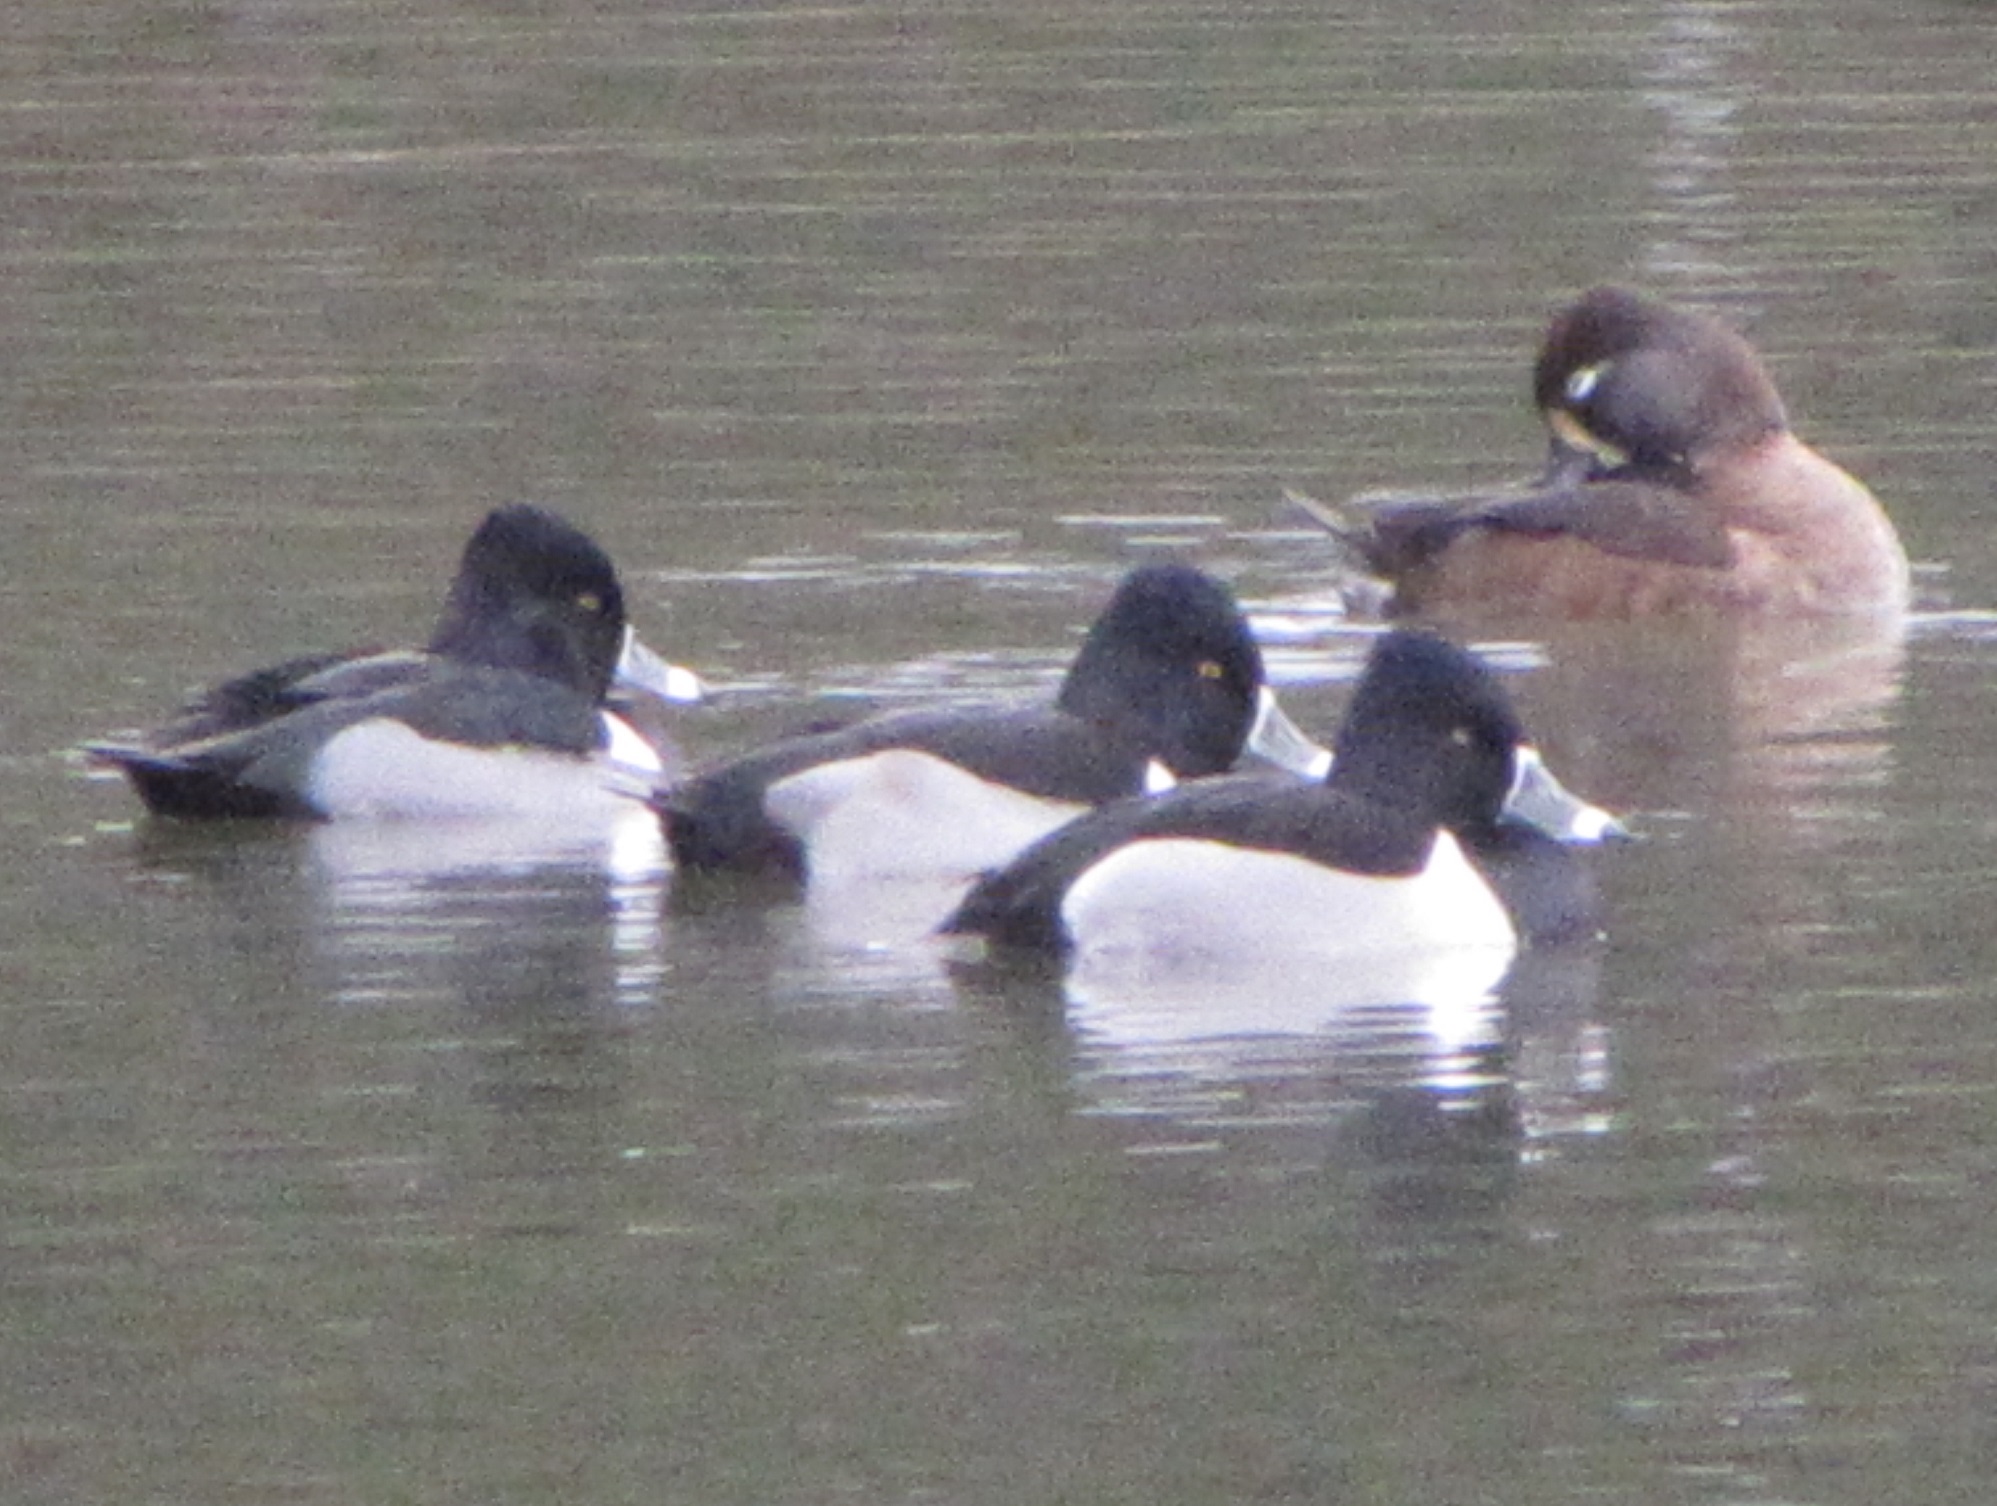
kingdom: Animalia
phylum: Chordata
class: Aves
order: Anseriformes
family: Anatidae
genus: Aythya
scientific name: Aythya collaris
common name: Ring-necked duck
